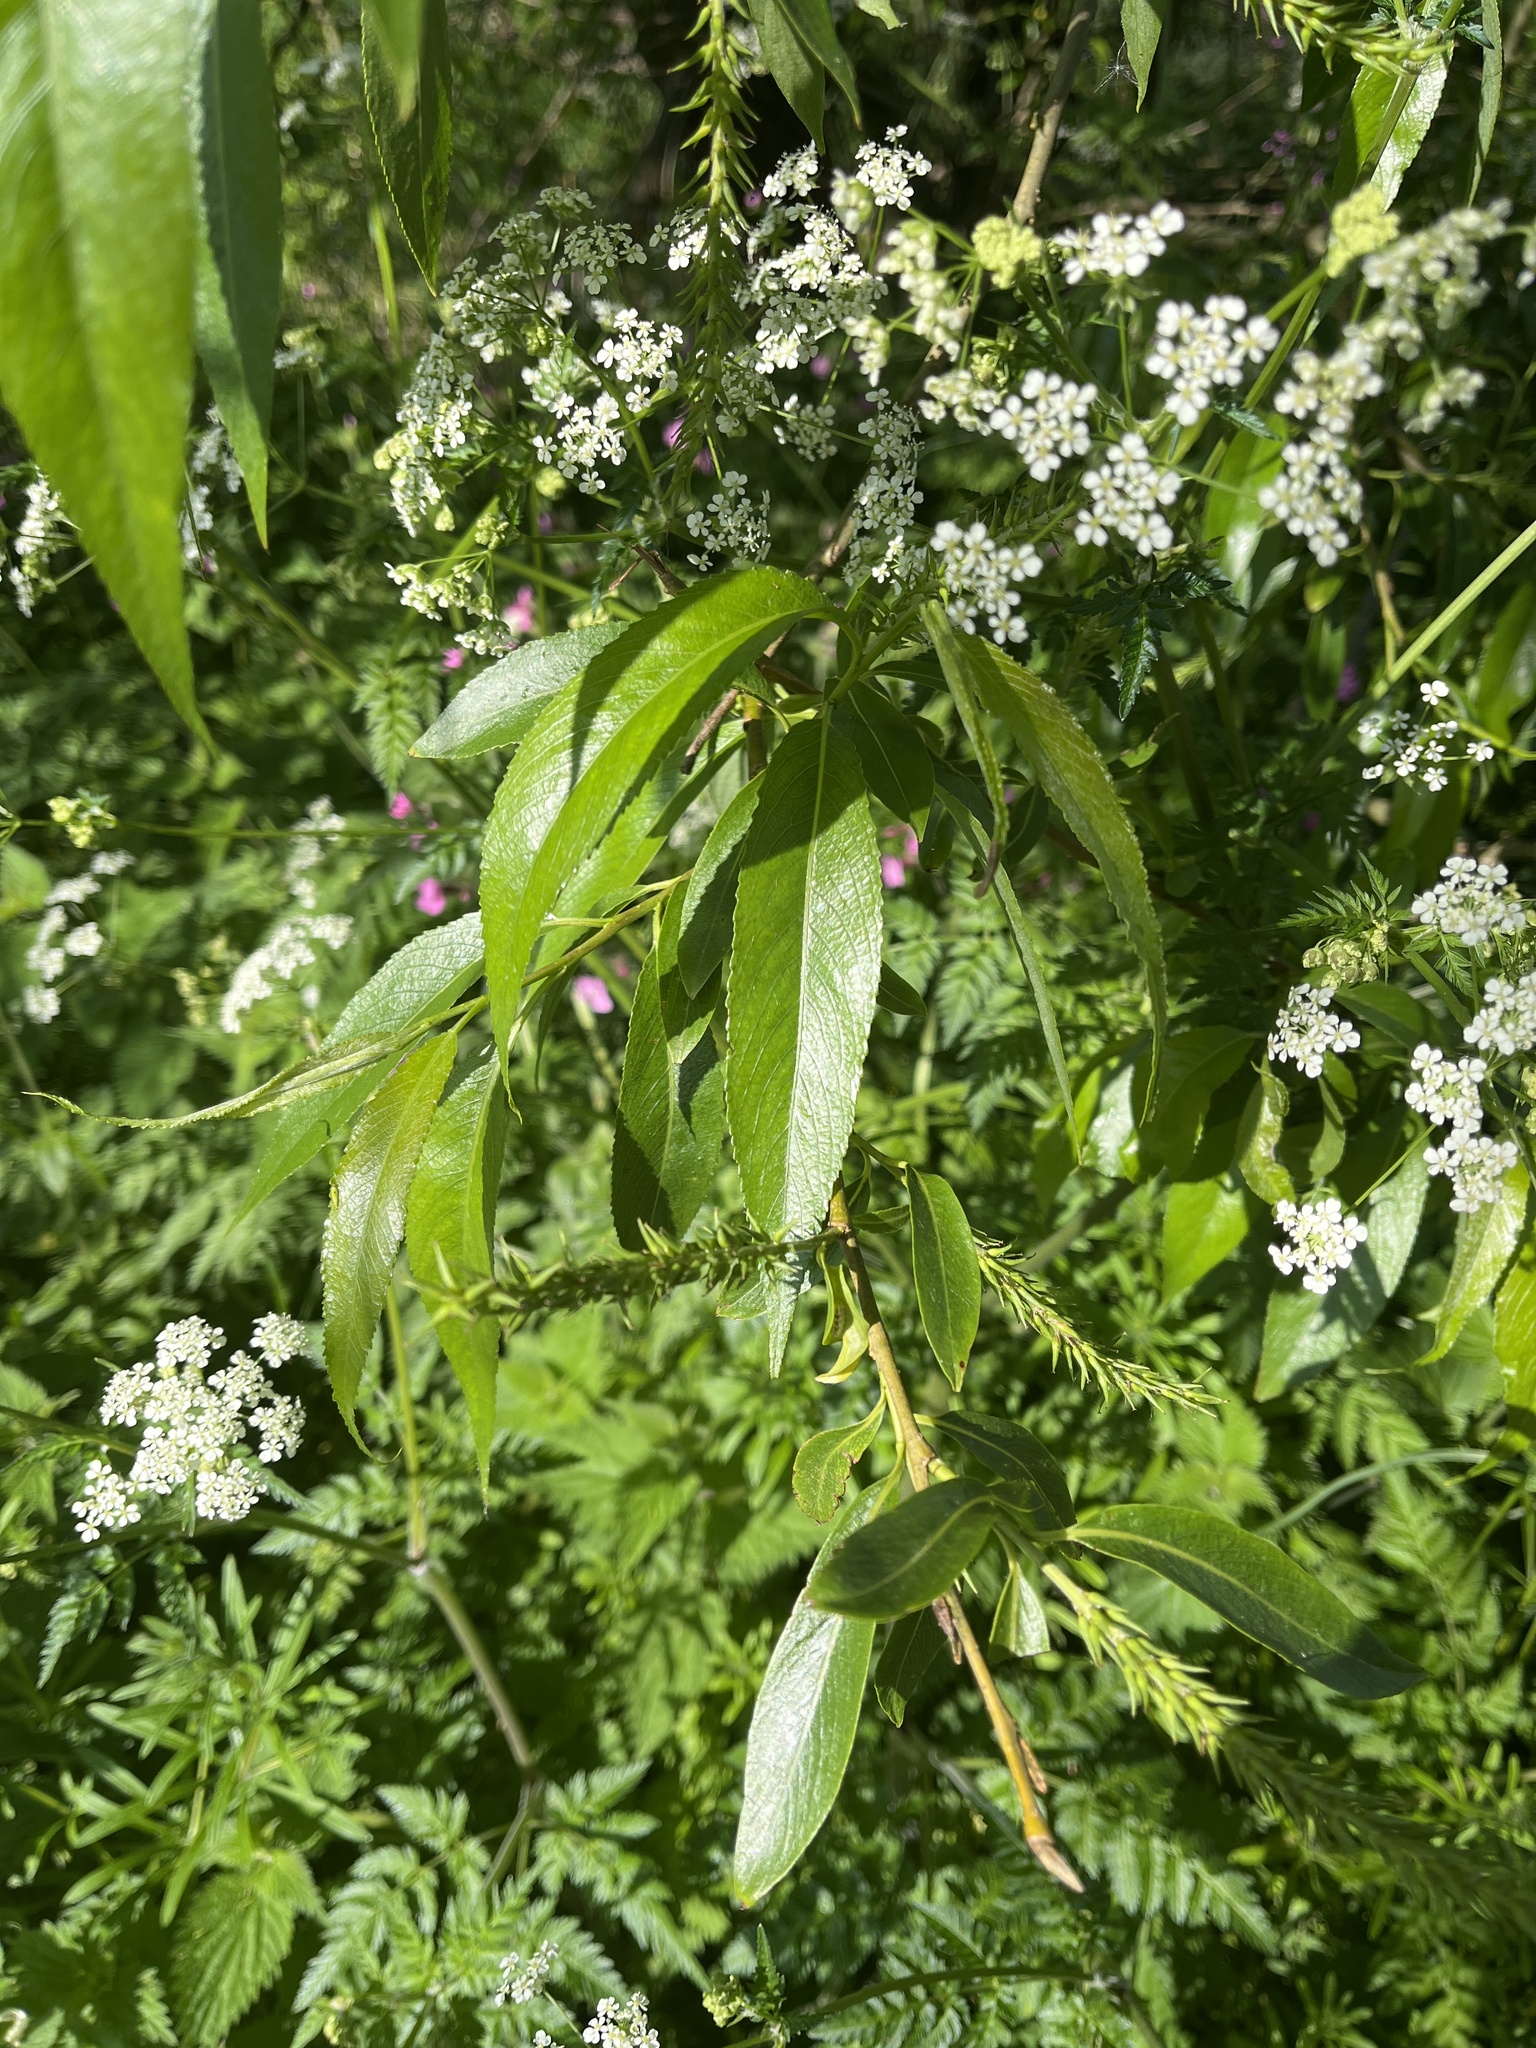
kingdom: Plantae
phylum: Tracheophyta
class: Magnoliopsida
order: Malpighiales
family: Salicaceae
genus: Salix
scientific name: Salix fragilis
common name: Crack willow
